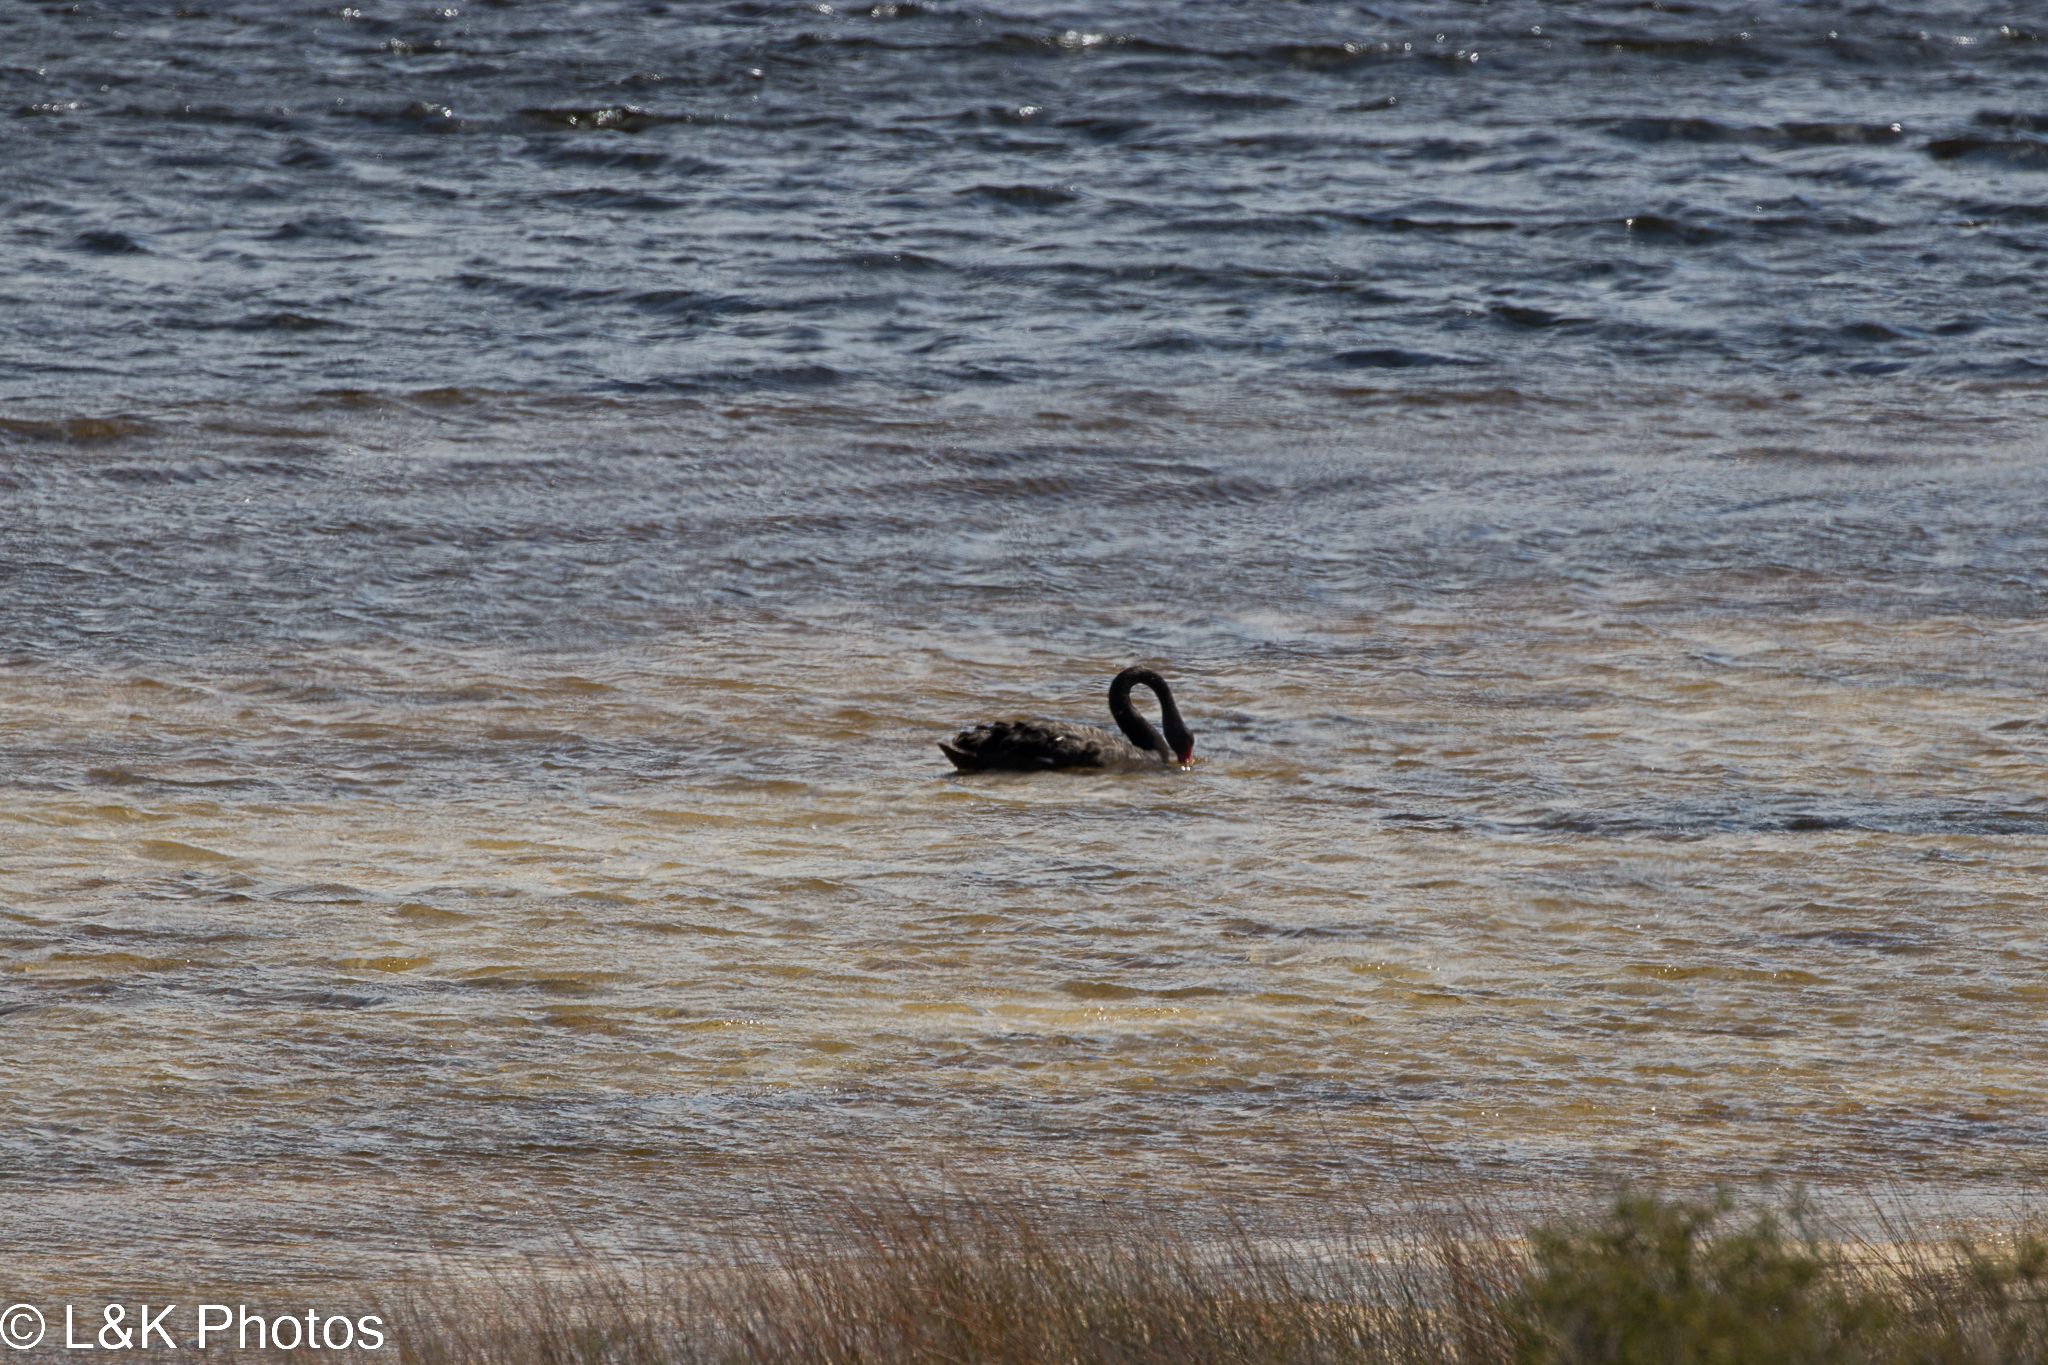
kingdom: Animalia
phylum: Chordata
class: Aves
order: Anseriformes
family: Anatidae
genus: Cygnus
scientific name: Cygnus atratus
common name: Black swan
